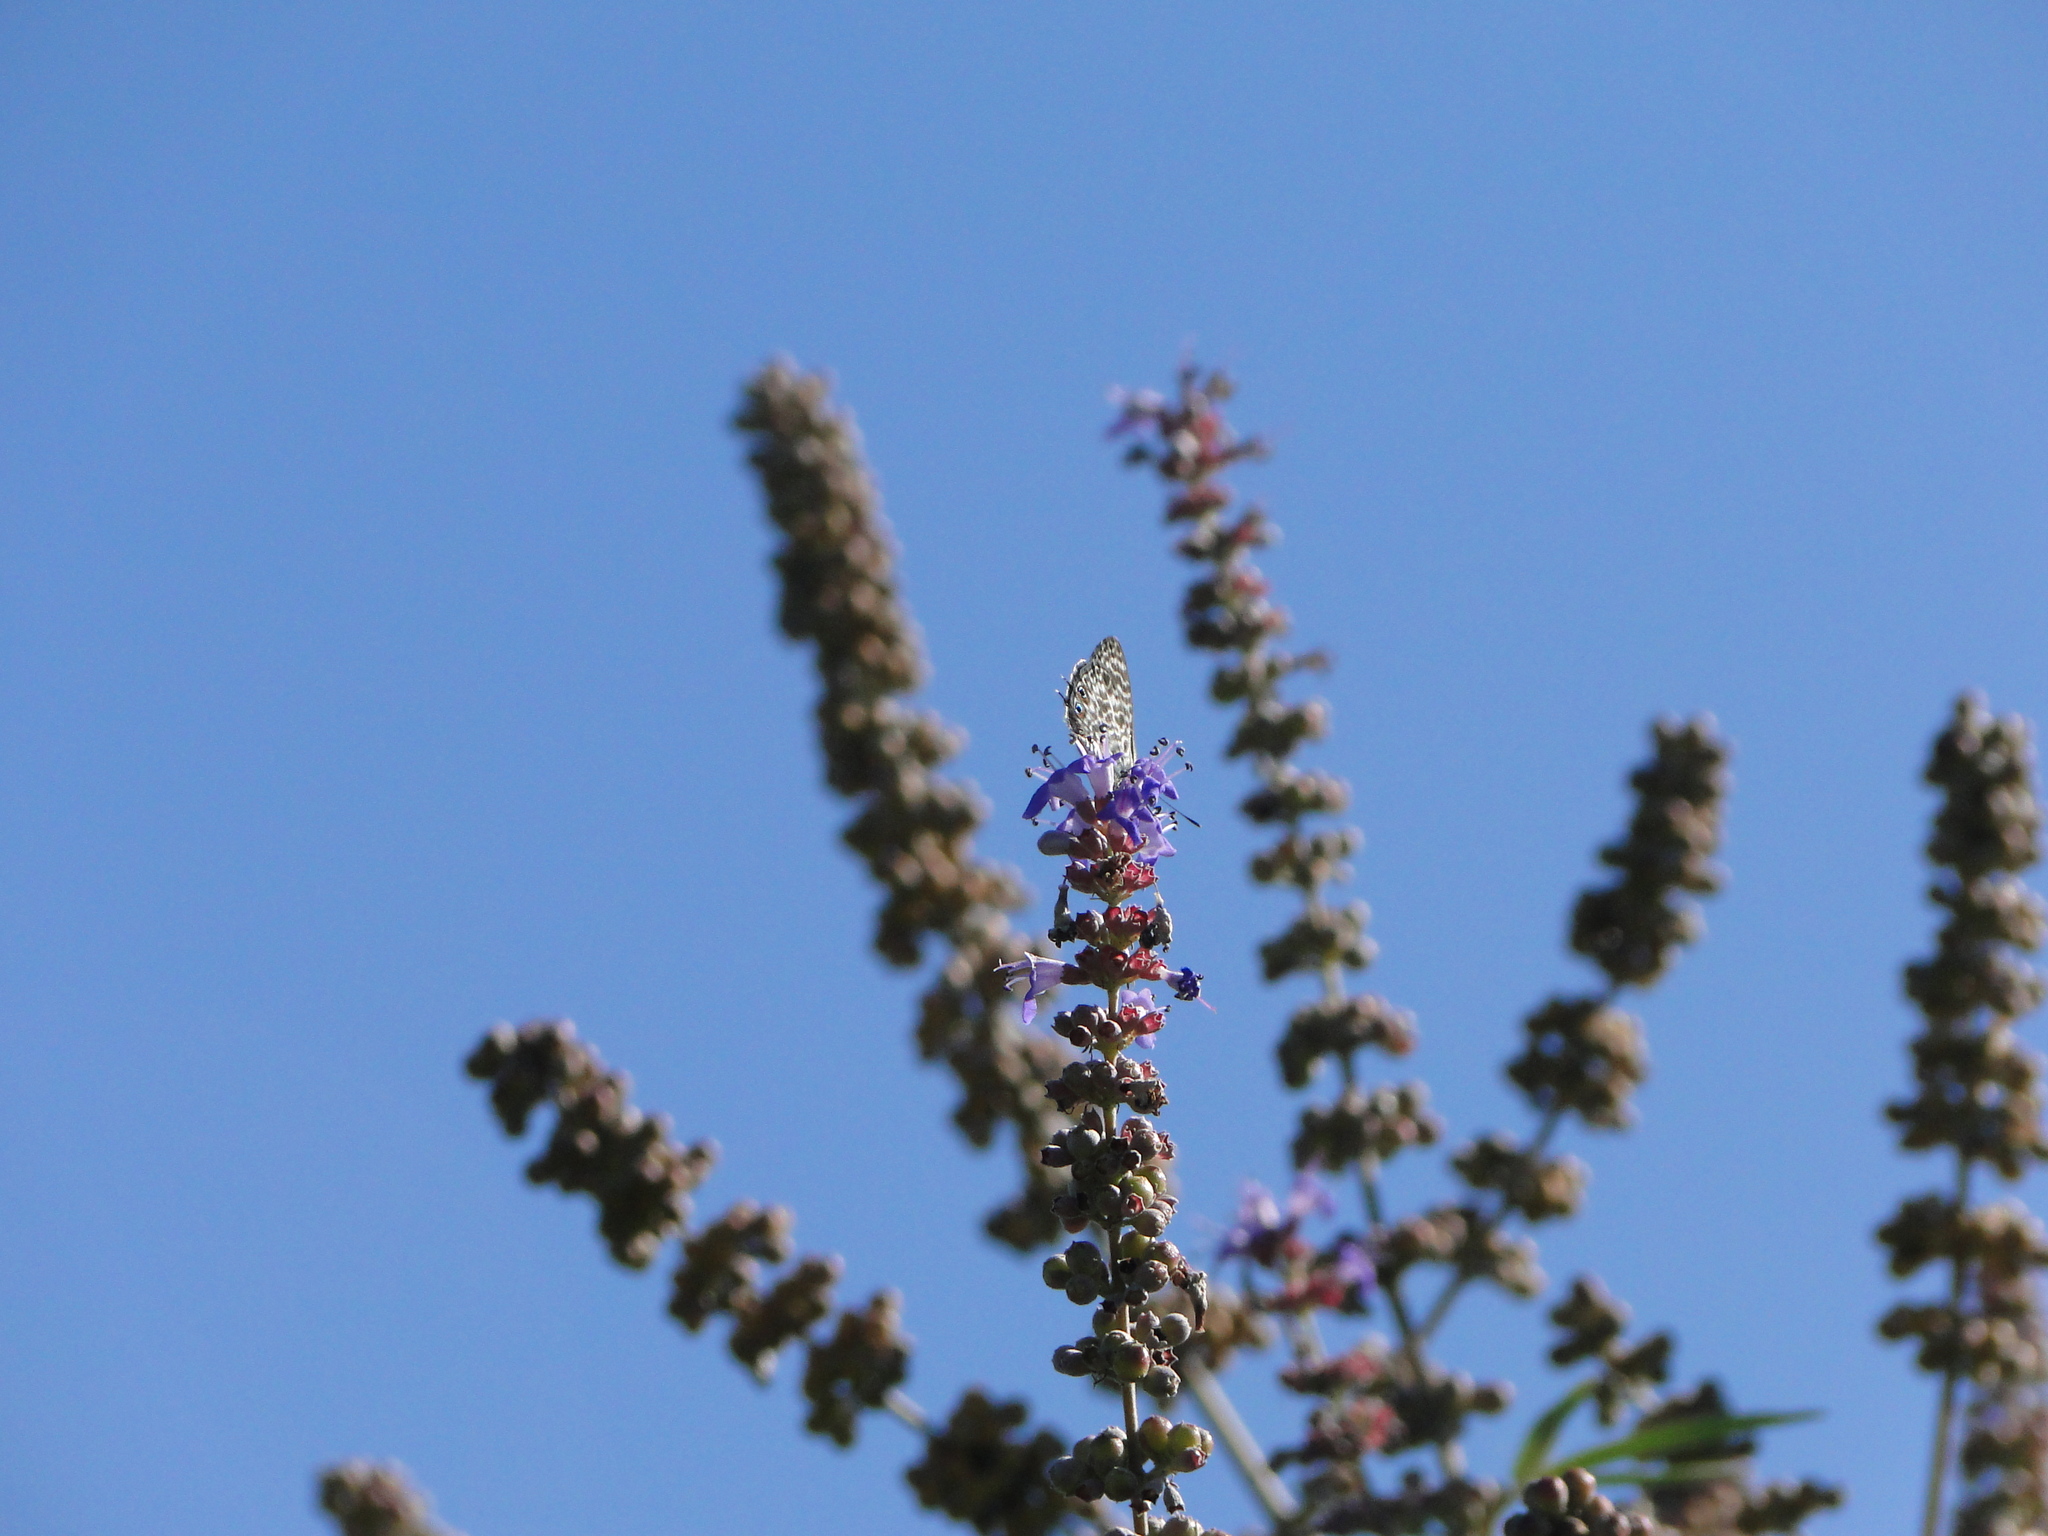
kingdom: Animalia
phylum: Arthropoda
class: Insecta
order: Lepidoptera
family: Lycaenidae
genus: Leptotes
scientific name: Leptotes pirithous
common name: Lang's short-tailed blue
